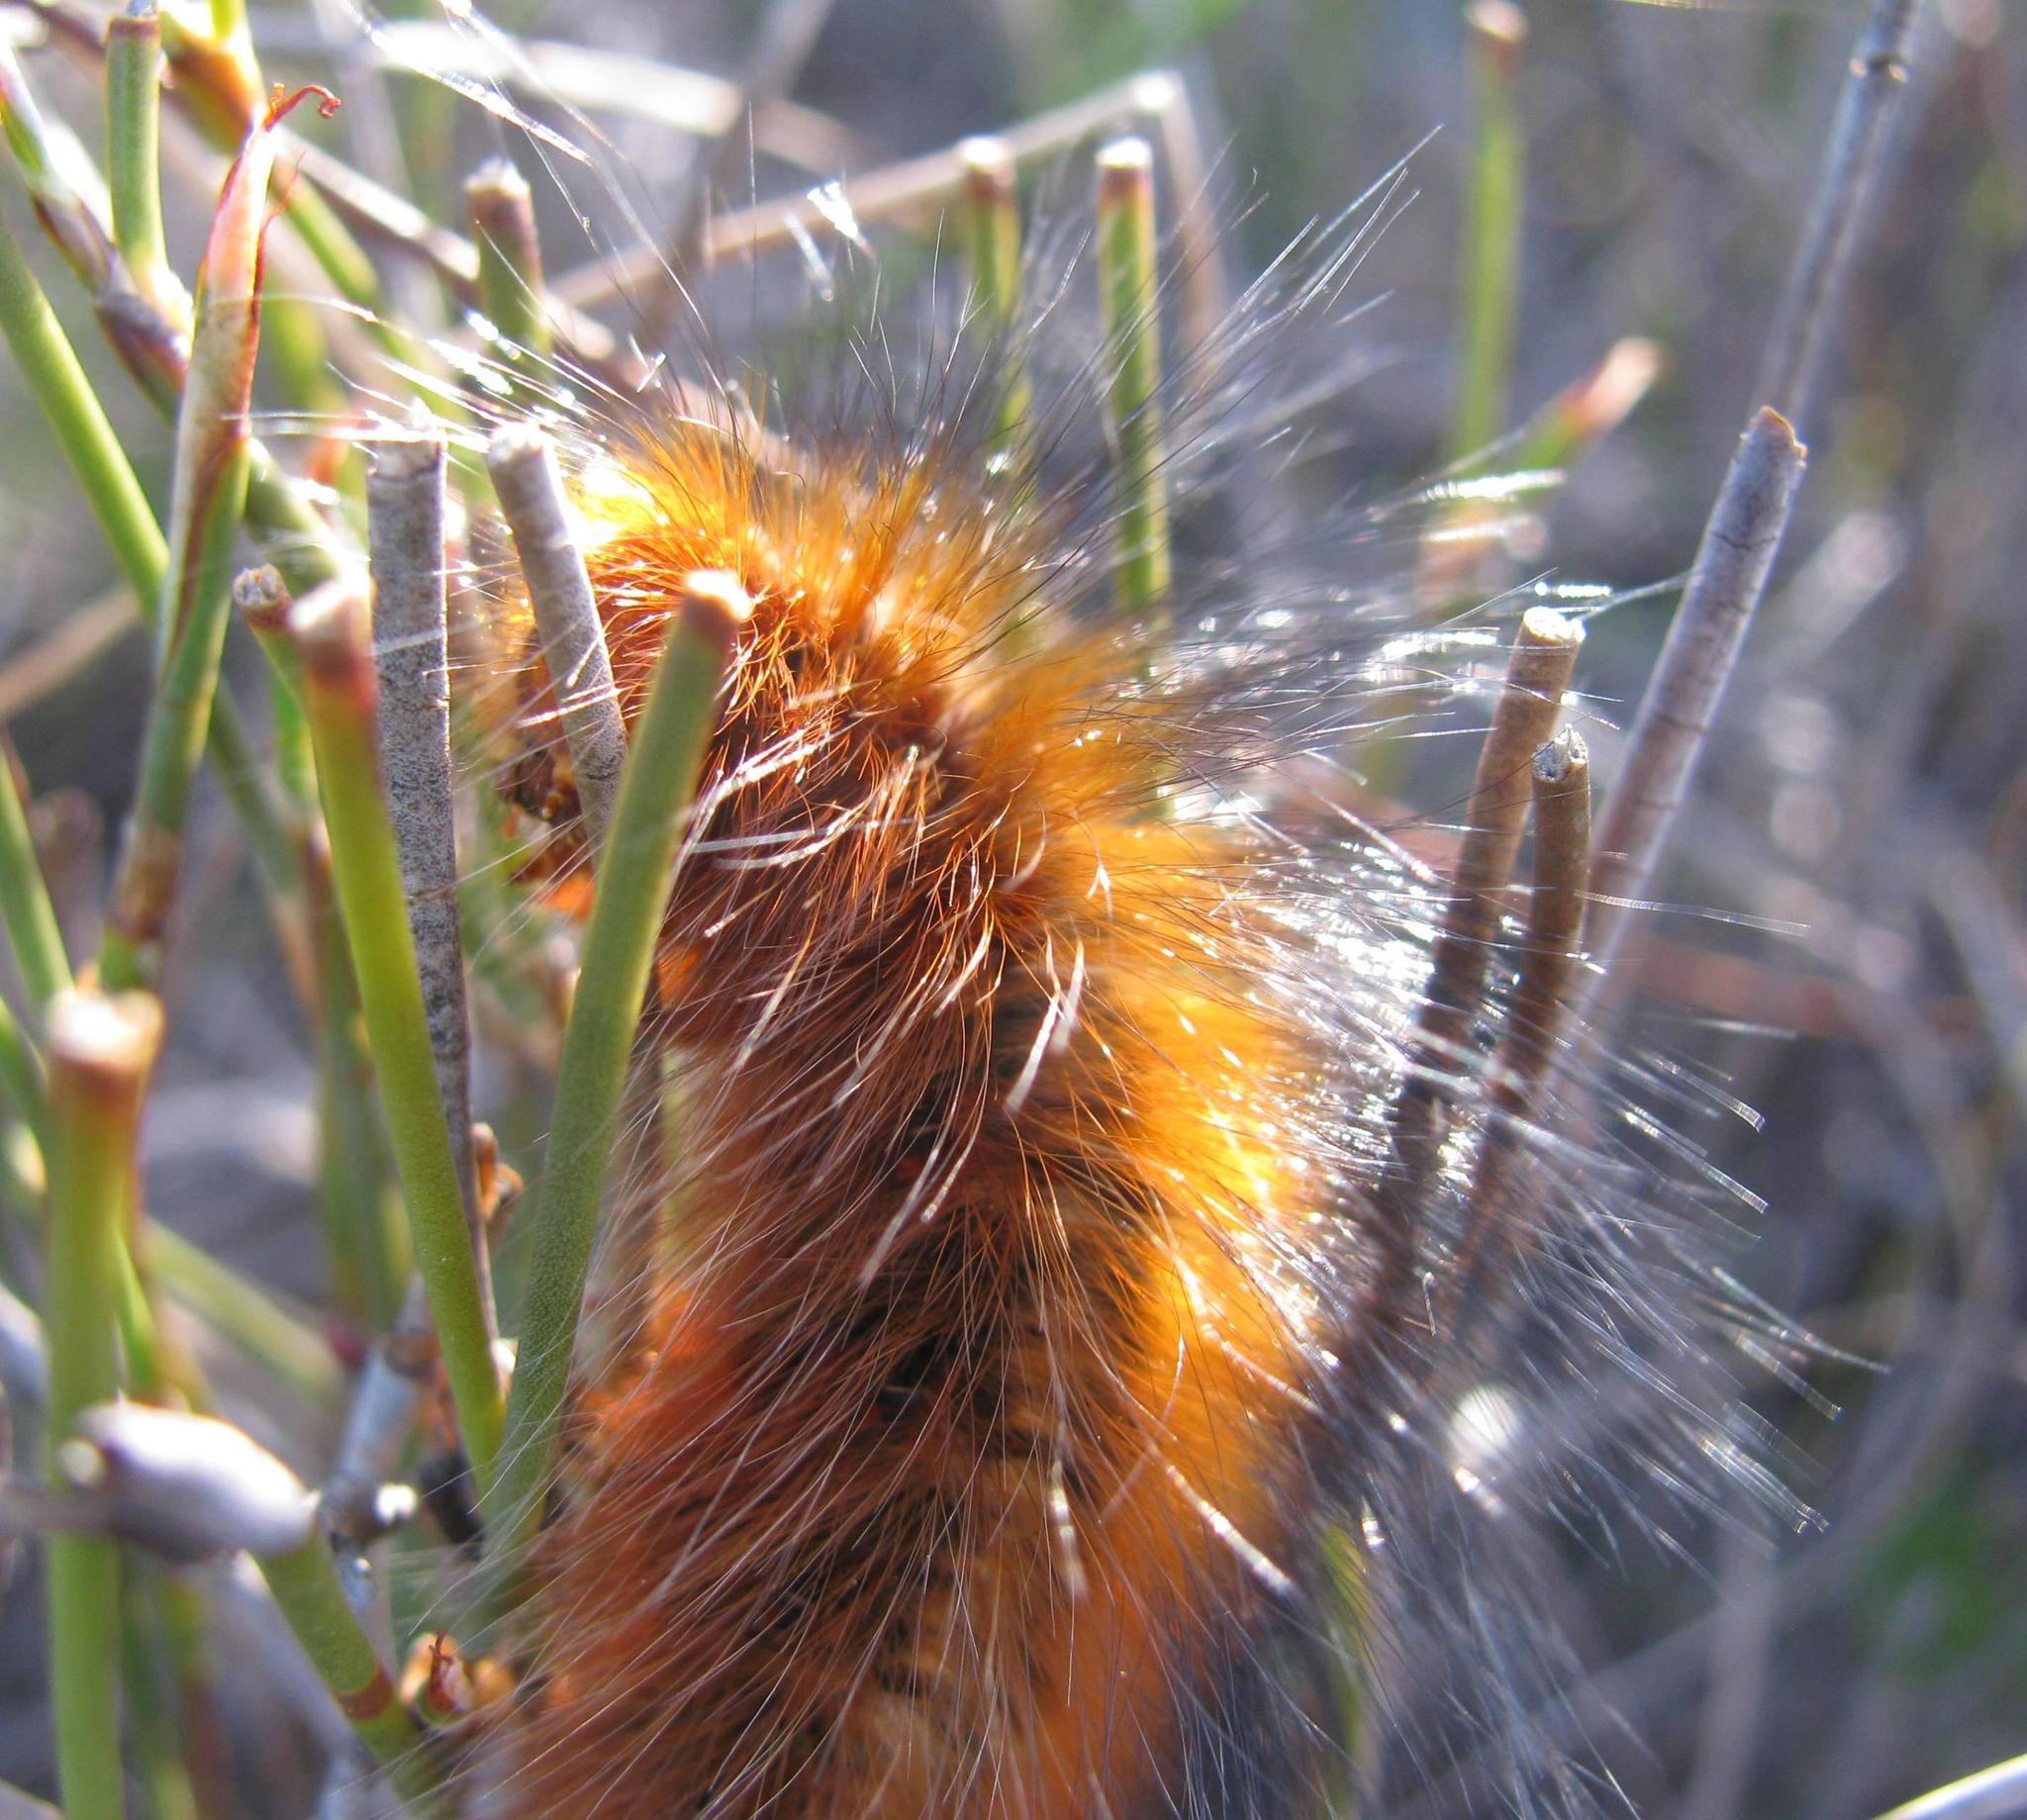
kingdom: Animalia
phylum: Arthropoda
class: Insecta
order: Lepidoptera
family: Lasiocampidae
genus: Mesocelis
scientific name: Mesocelis monticola
